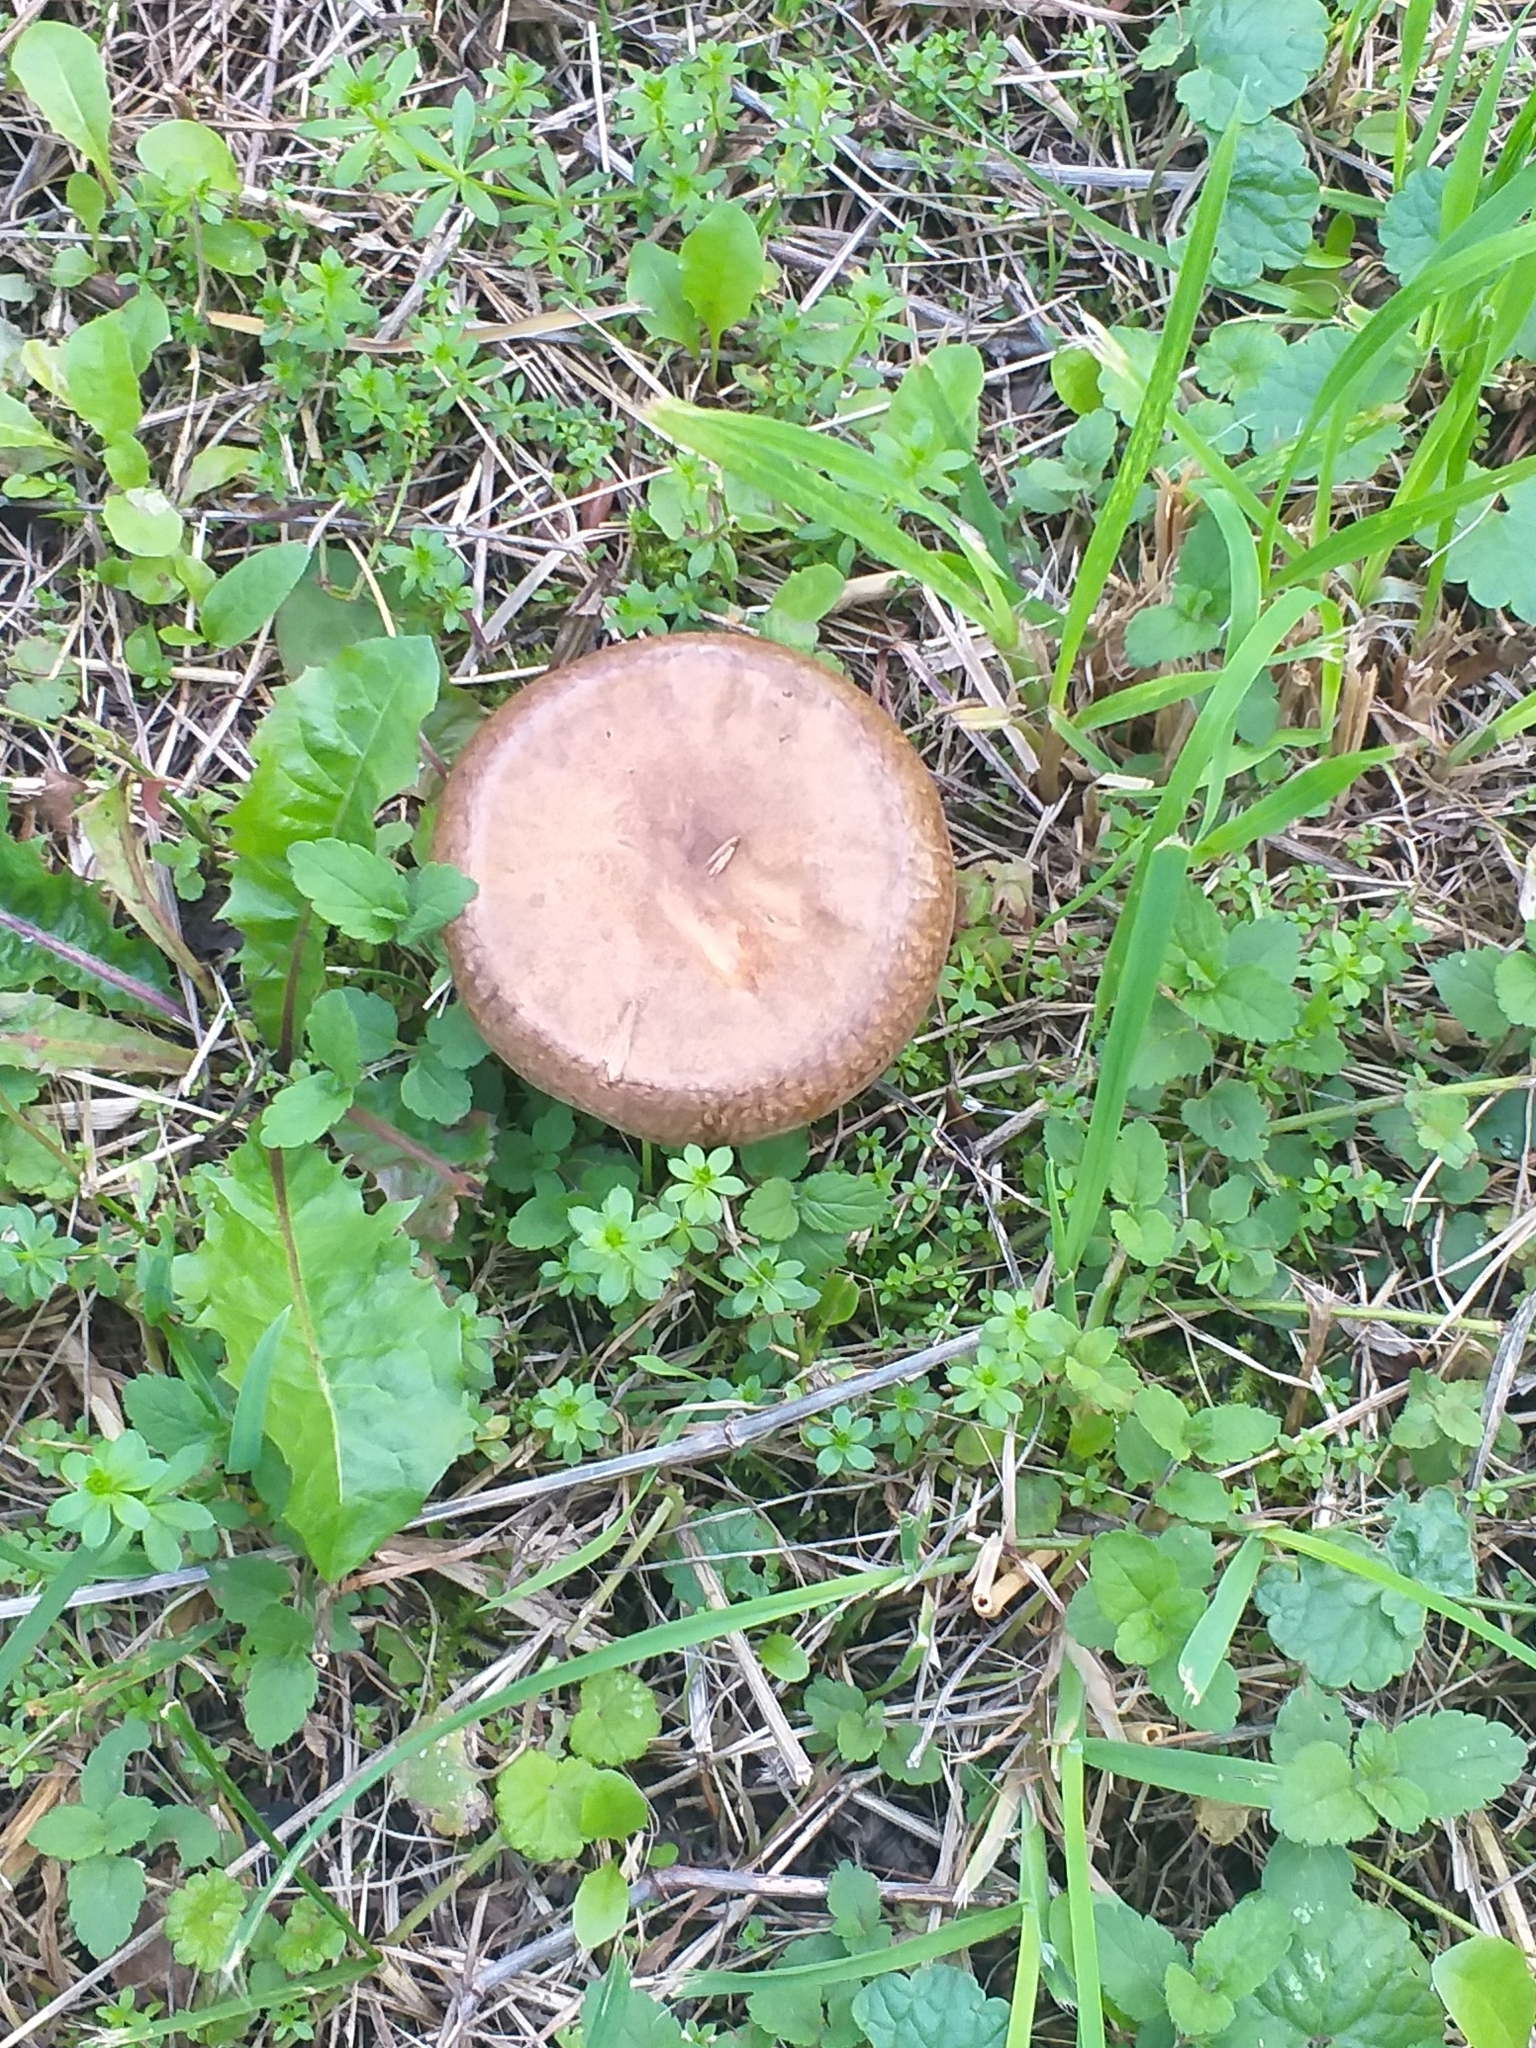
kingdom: Fungi
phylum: Basidiomycota
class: Agaricomycetes
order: Boletales
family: Paxillaceae
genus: Paxillus
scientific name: Paxillus involutus
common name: Brown roll rim
